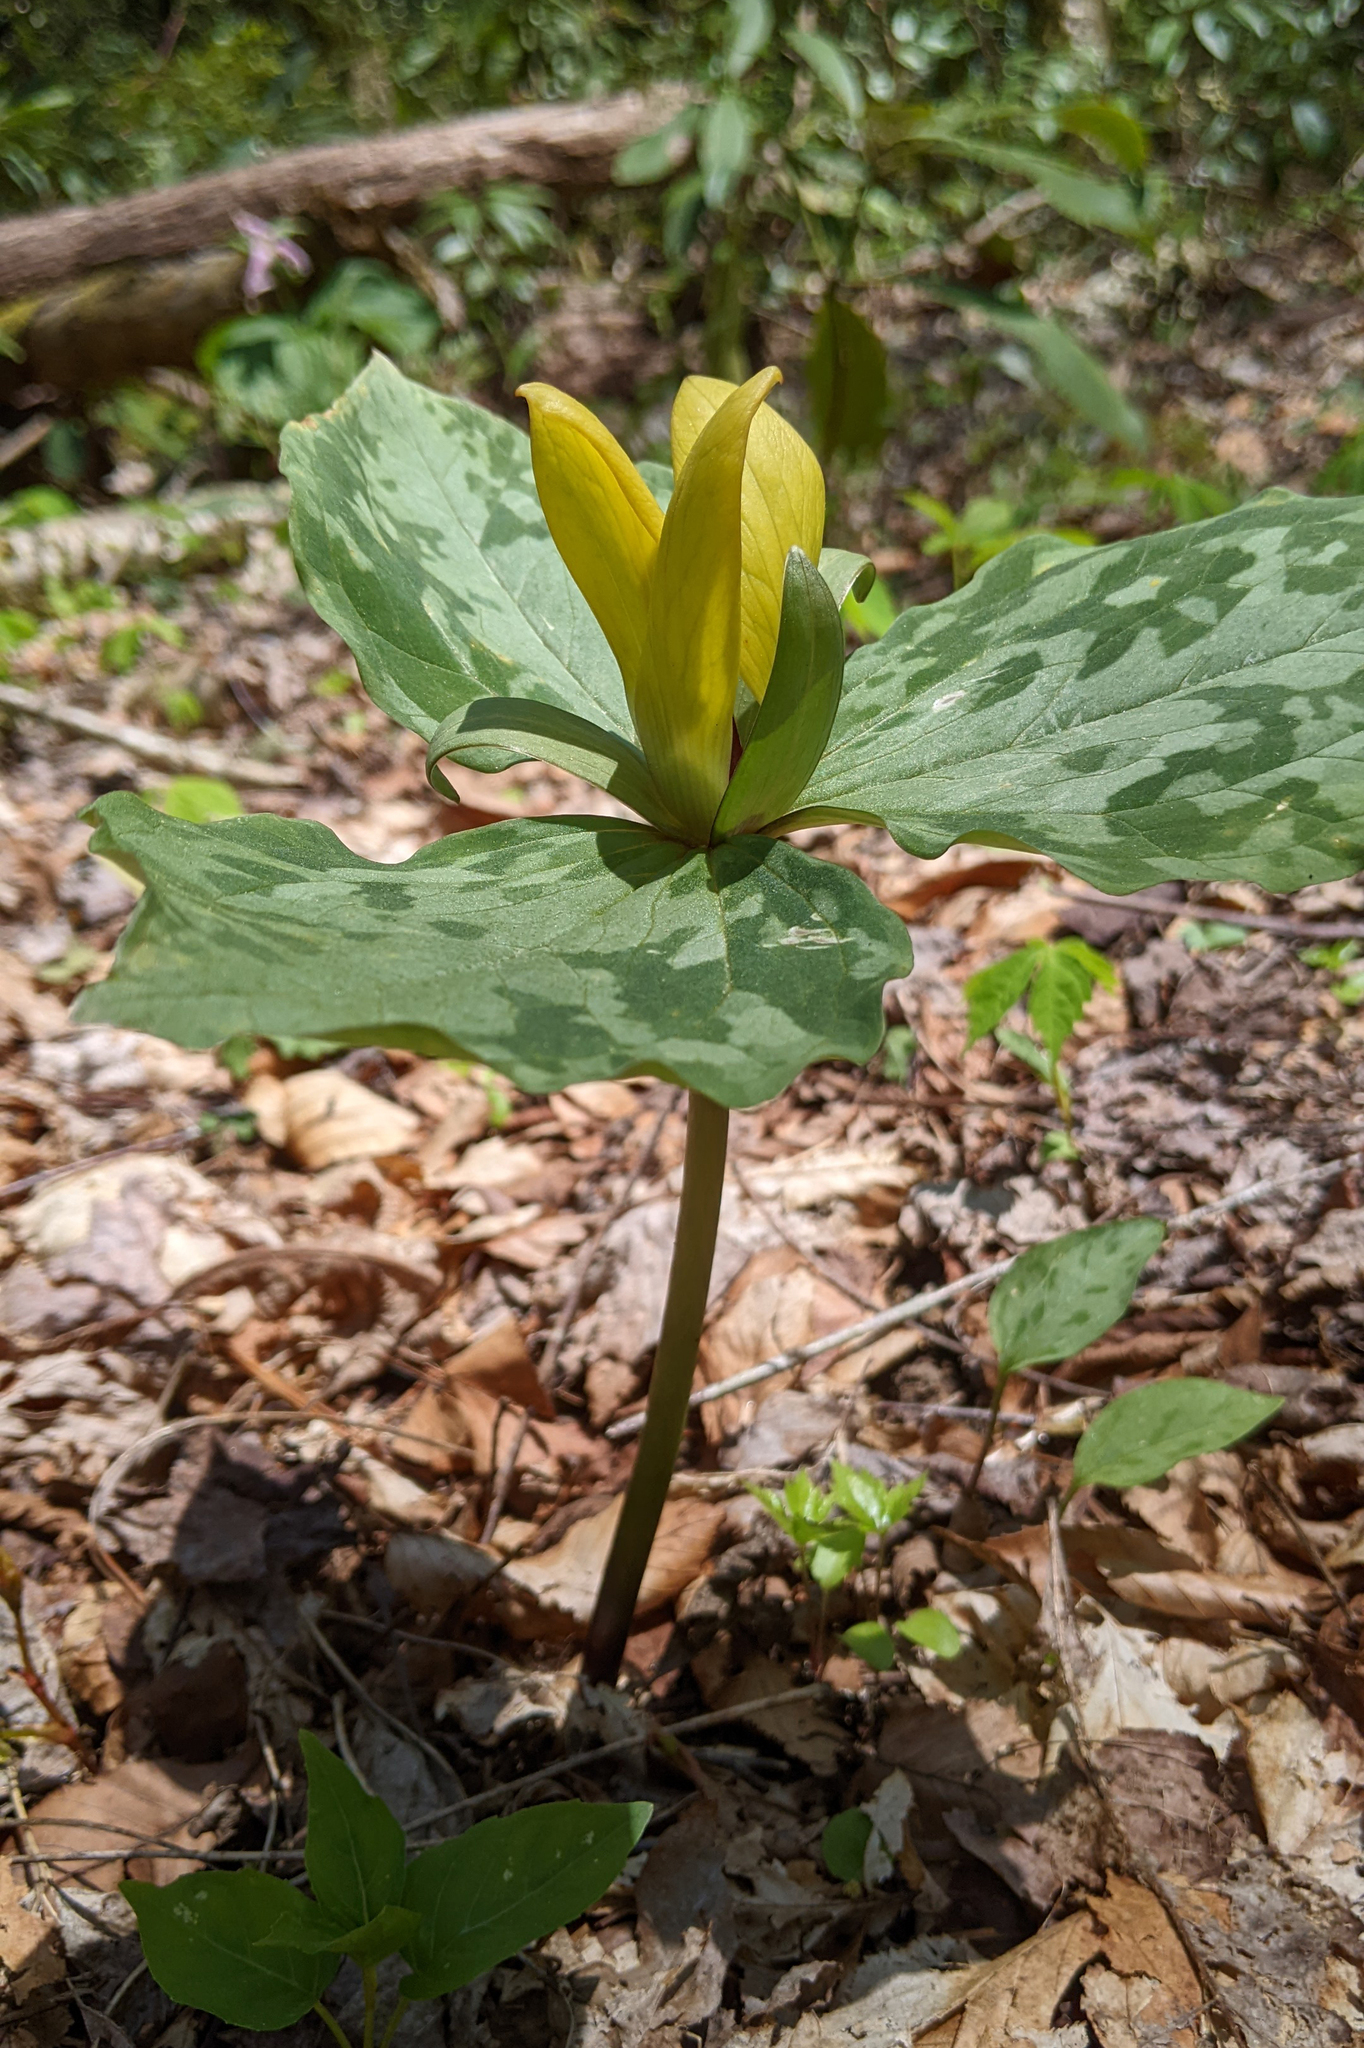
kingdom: Plantae
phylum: Tracheophyta
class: Liliopsida
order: Liliales
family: Melanthiaceae
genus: Trillium
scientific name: Trillium cuneatum
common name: Cuneate trillium
